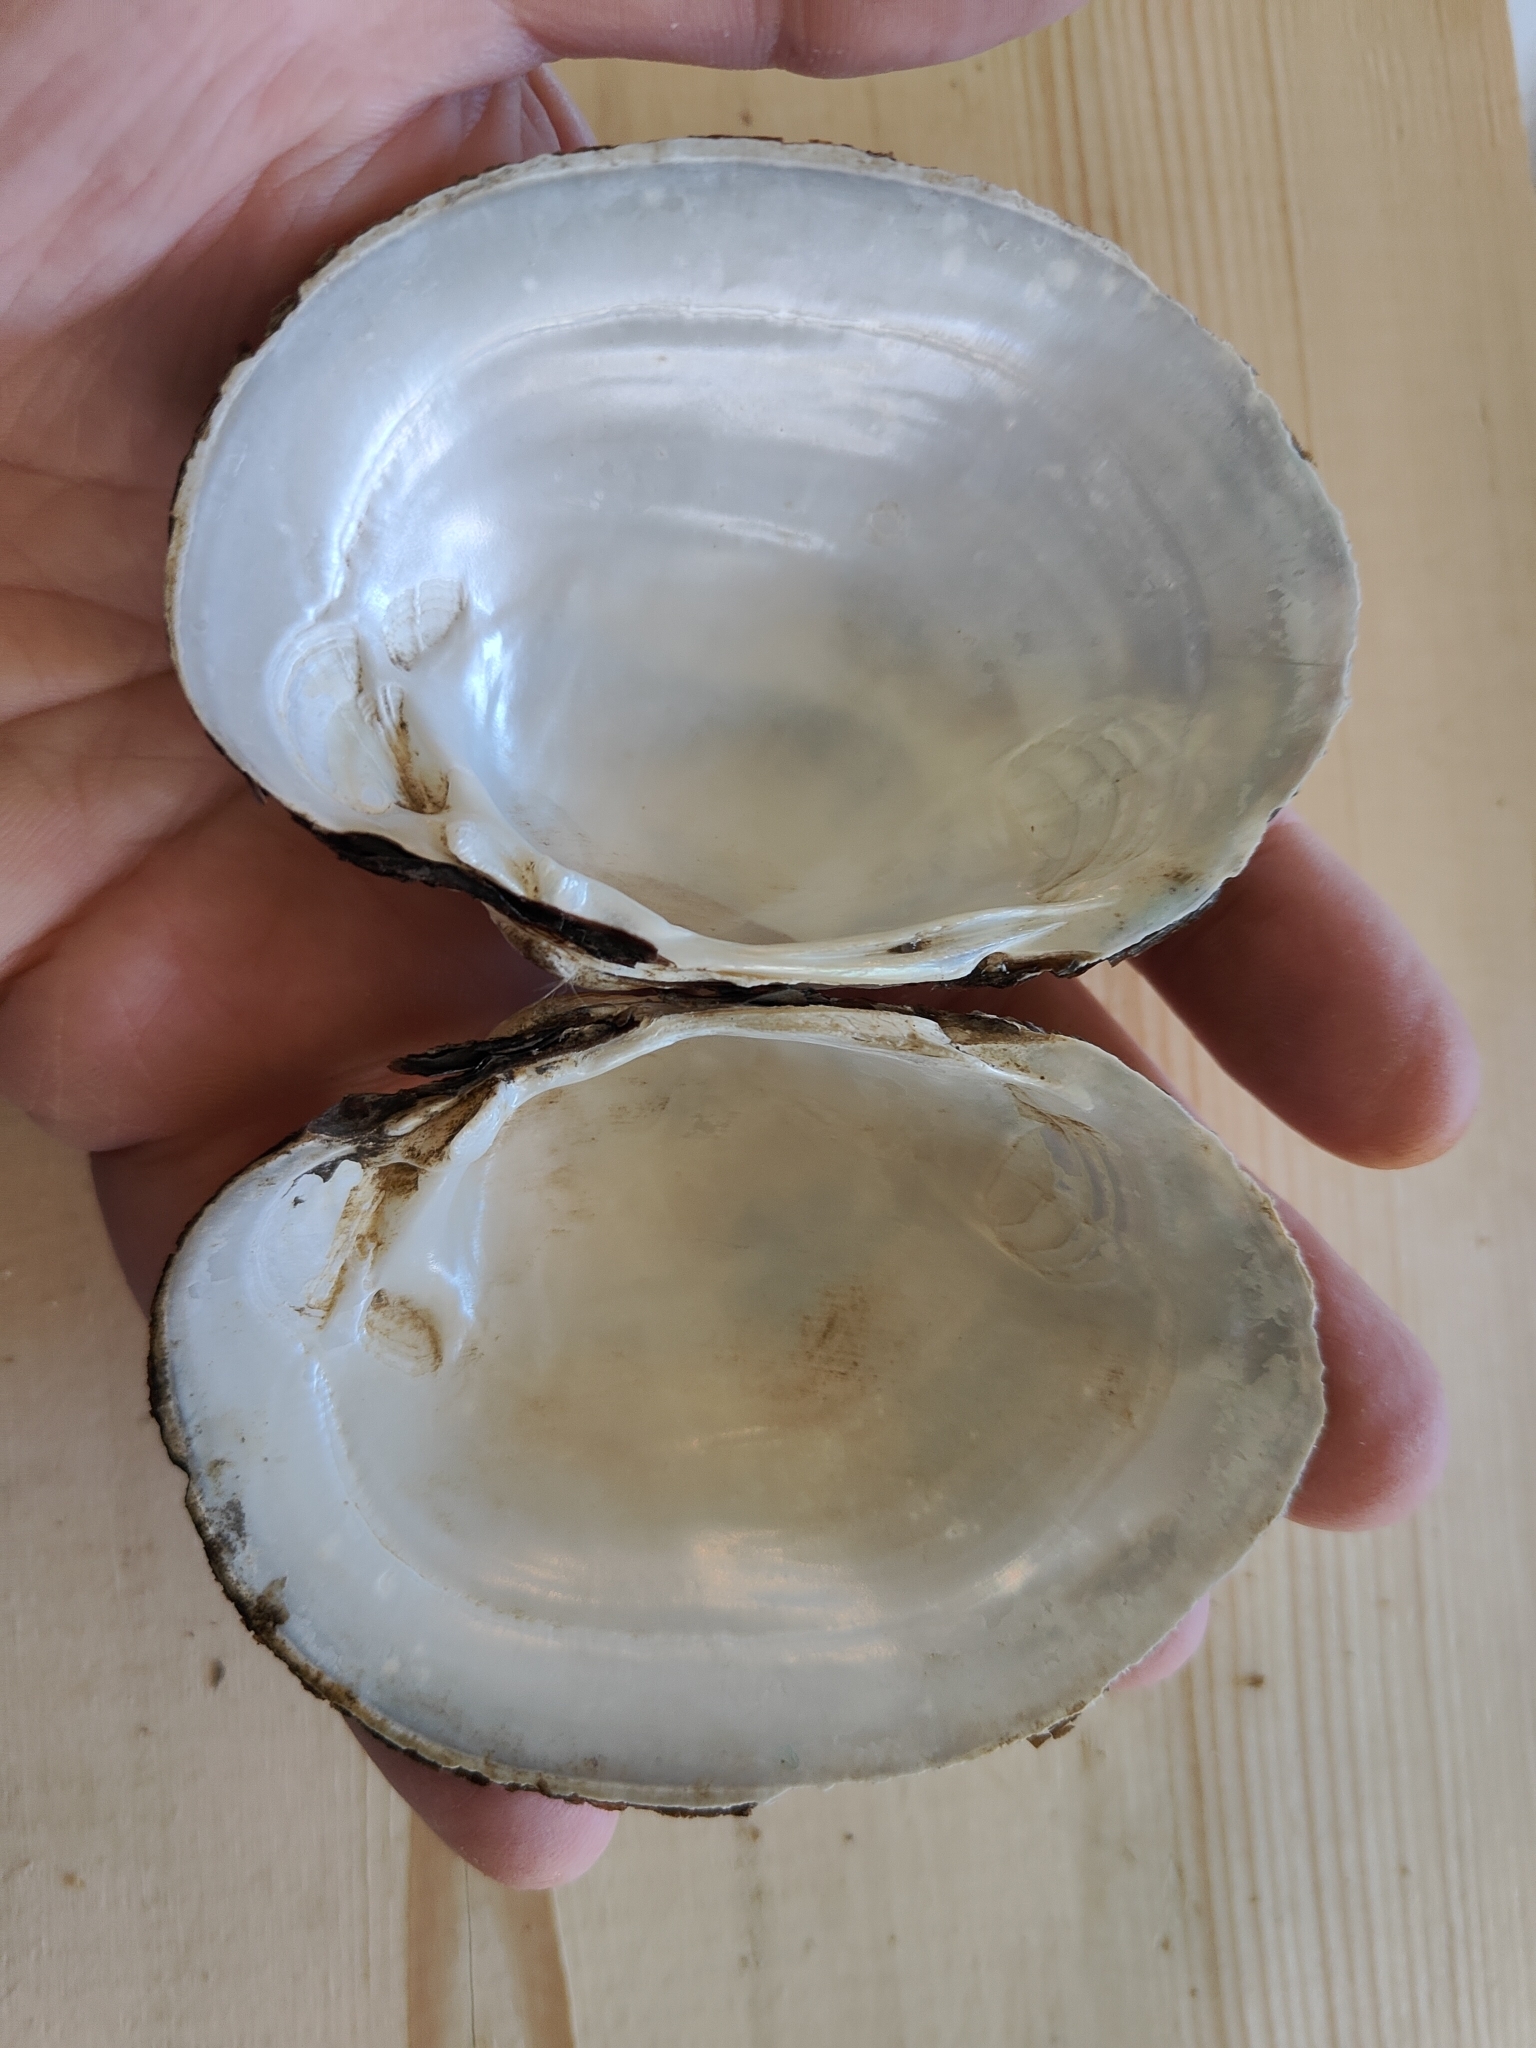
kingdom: Animalia
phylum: Mollusca
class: Bivalvia
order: Unionida
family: Unionidae
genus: Lampsilis
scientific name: Lampsilis cardium
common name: Plain pocketbook
